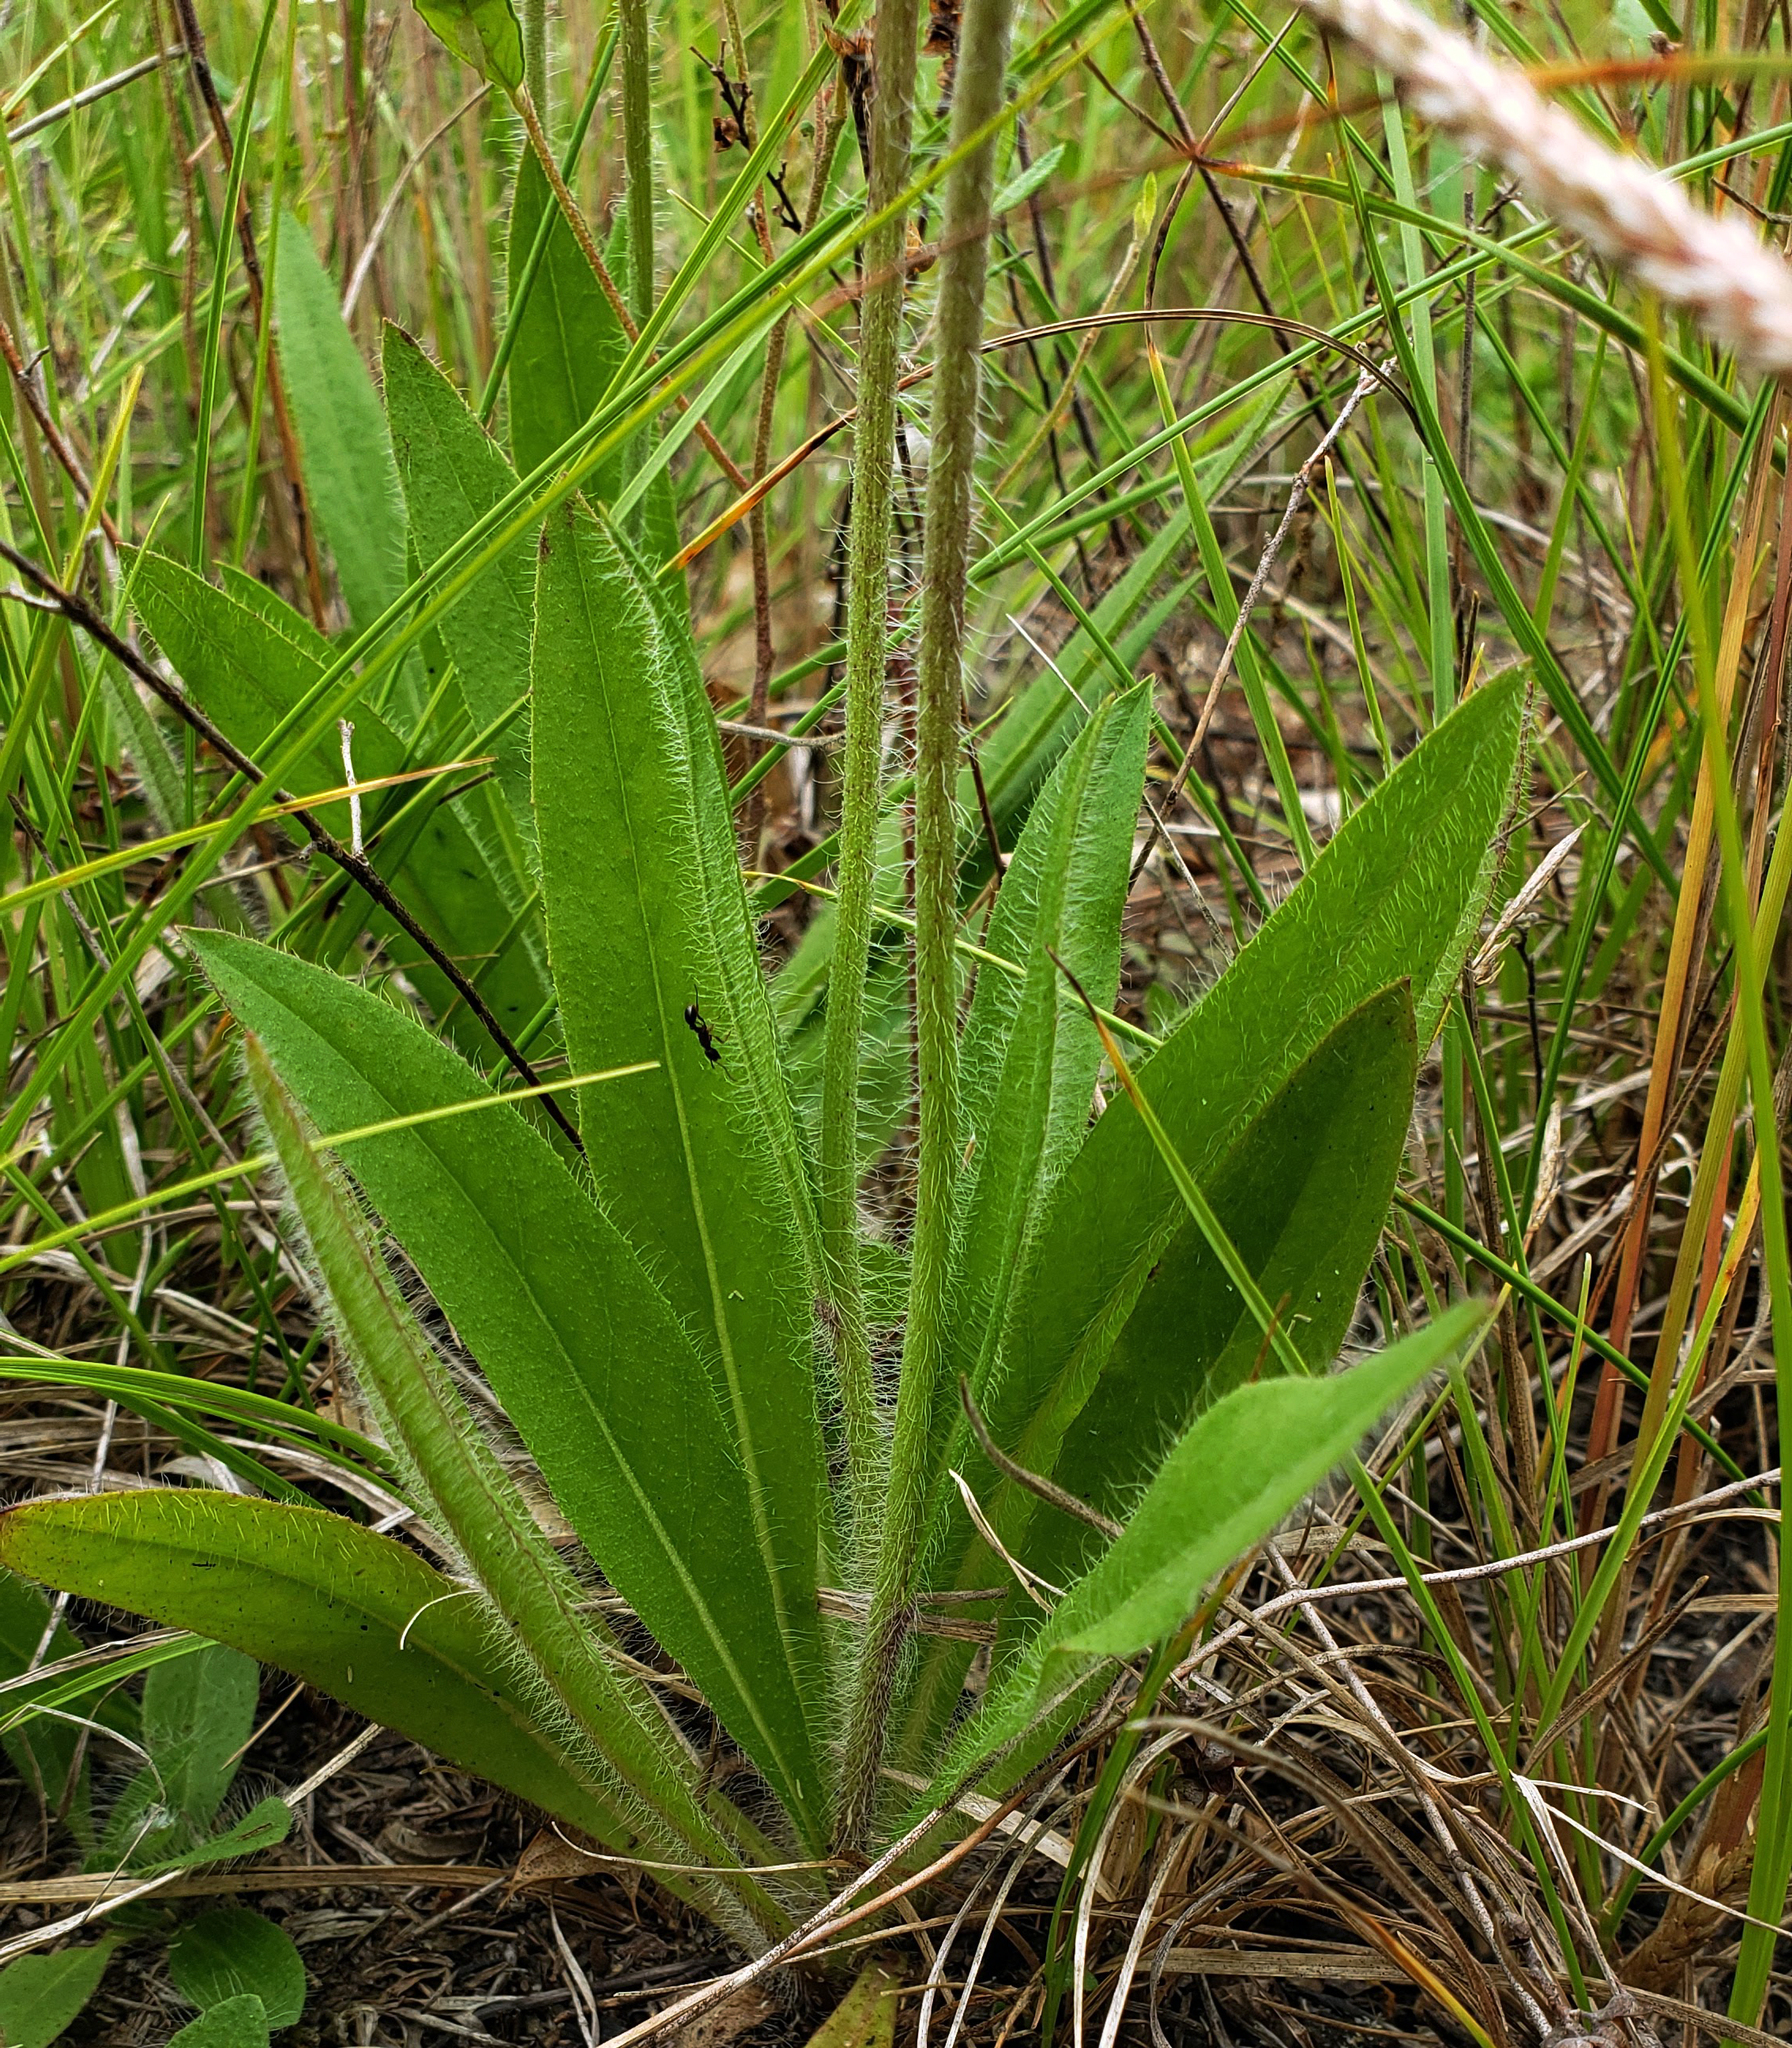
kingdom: Plantae
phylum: Tracheophyta
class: Magnoliopsida
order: Asterales
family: Asteraceae
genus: Pilosella
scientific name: Pilosella caespitosa
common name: Yellow fox-and-cubs
